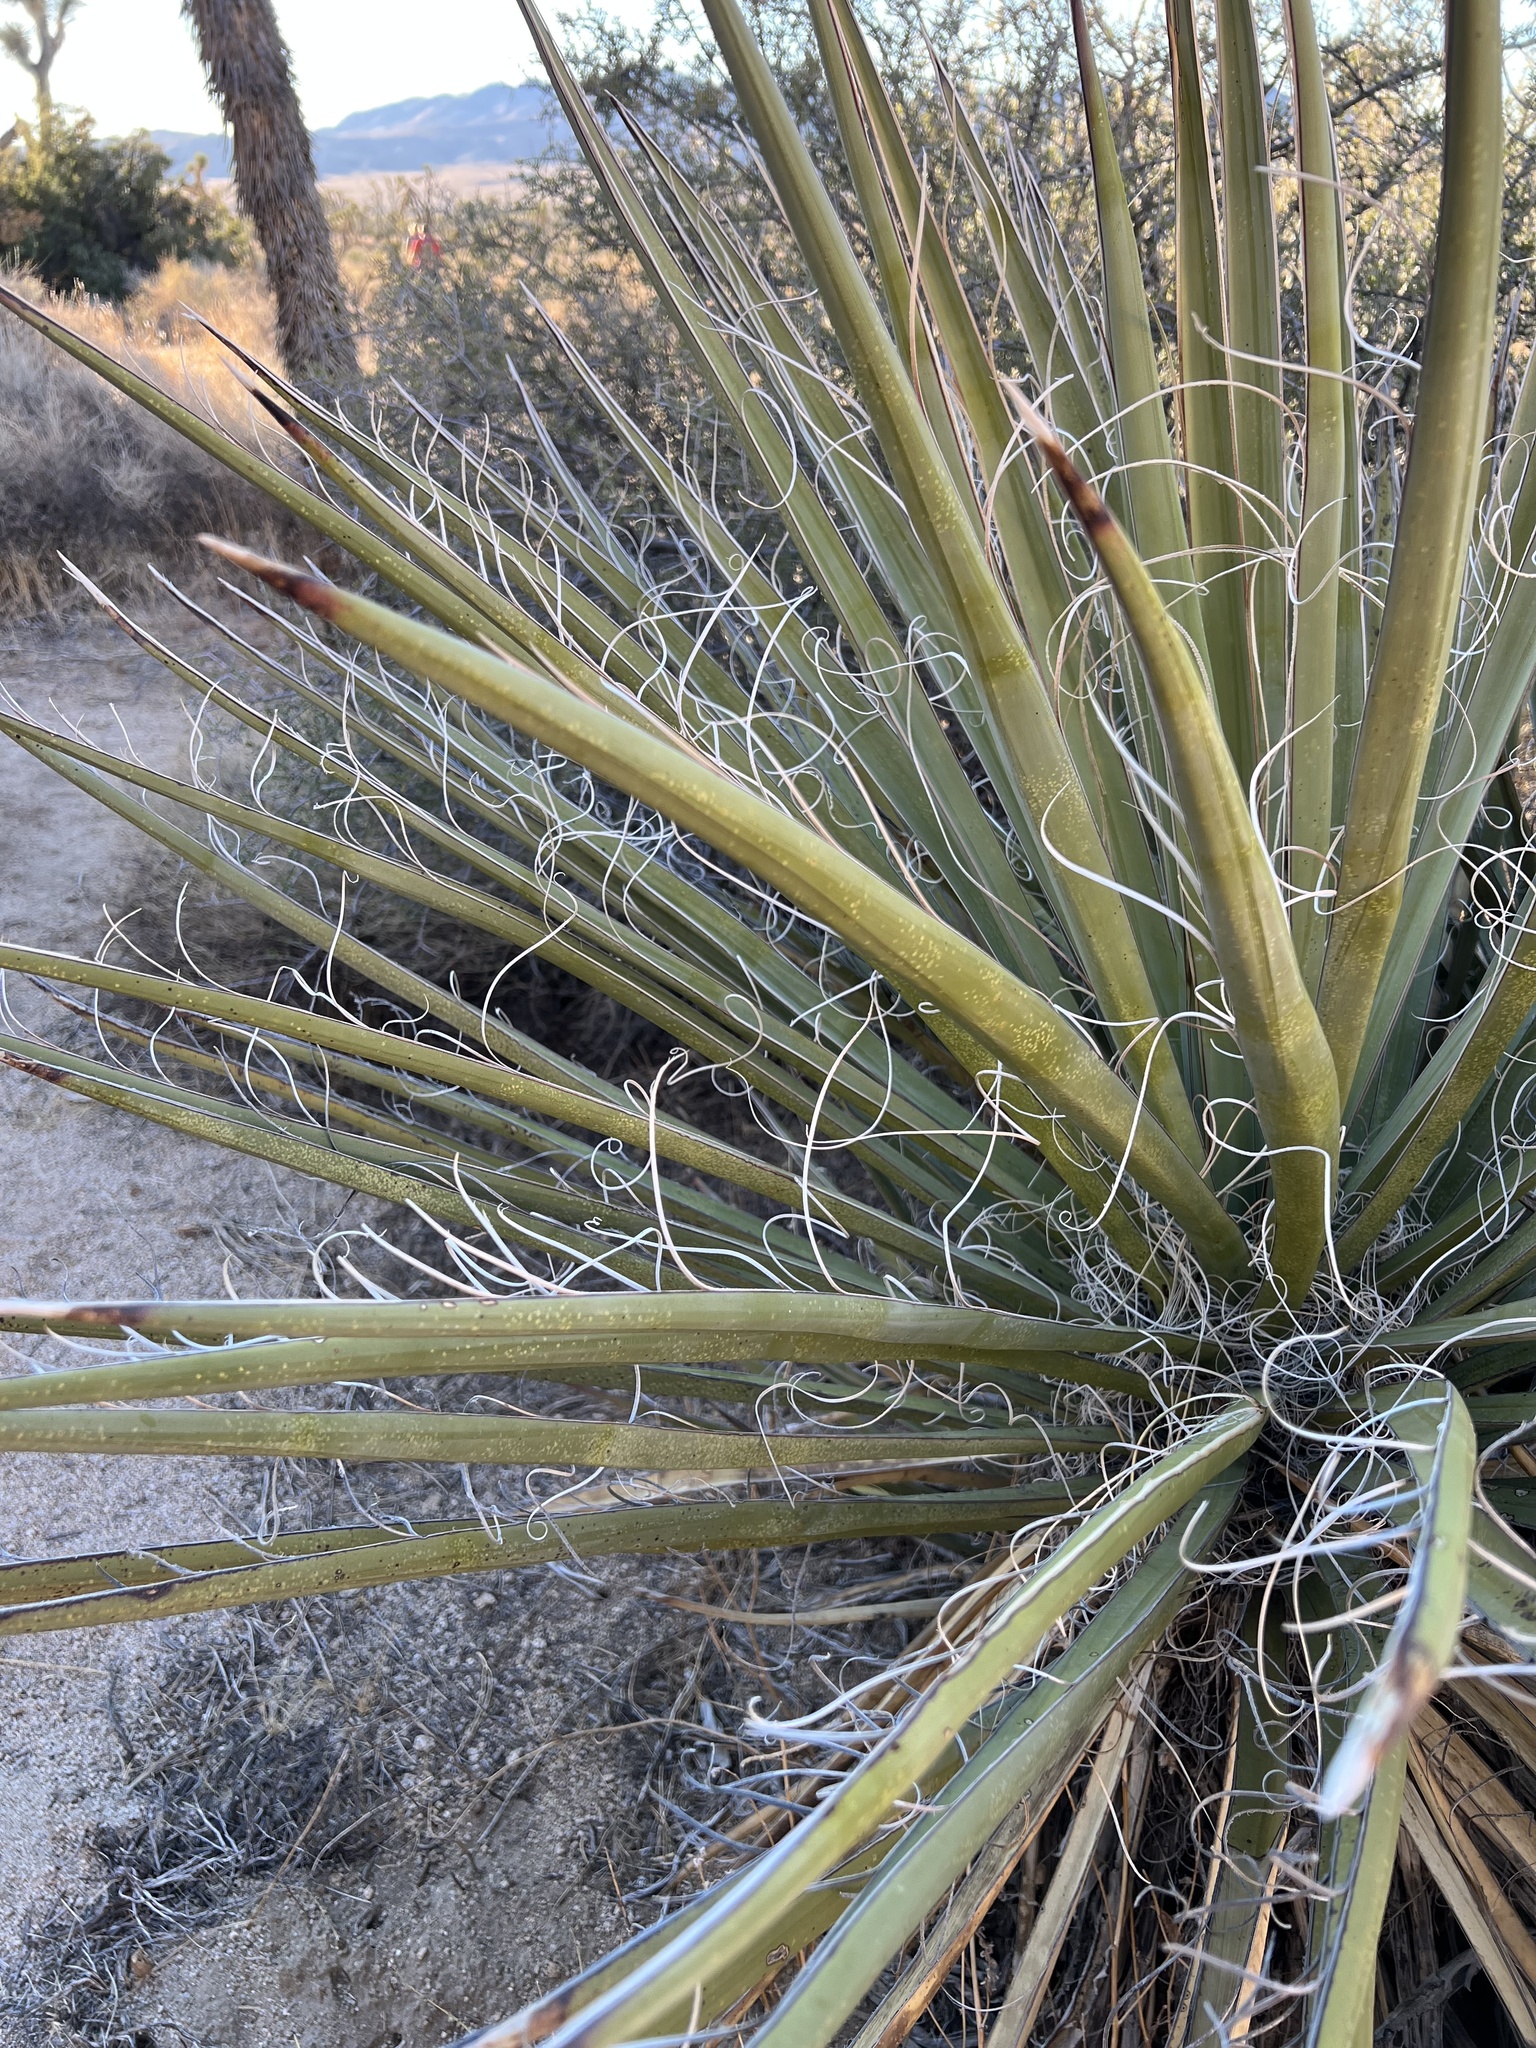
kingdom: Plantae
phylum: Tracheophyta
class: Liliopsida
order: Asparagales
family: Asparagaceae
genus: Yucca
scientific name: Yucca schidigera
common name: Mojave yucca
